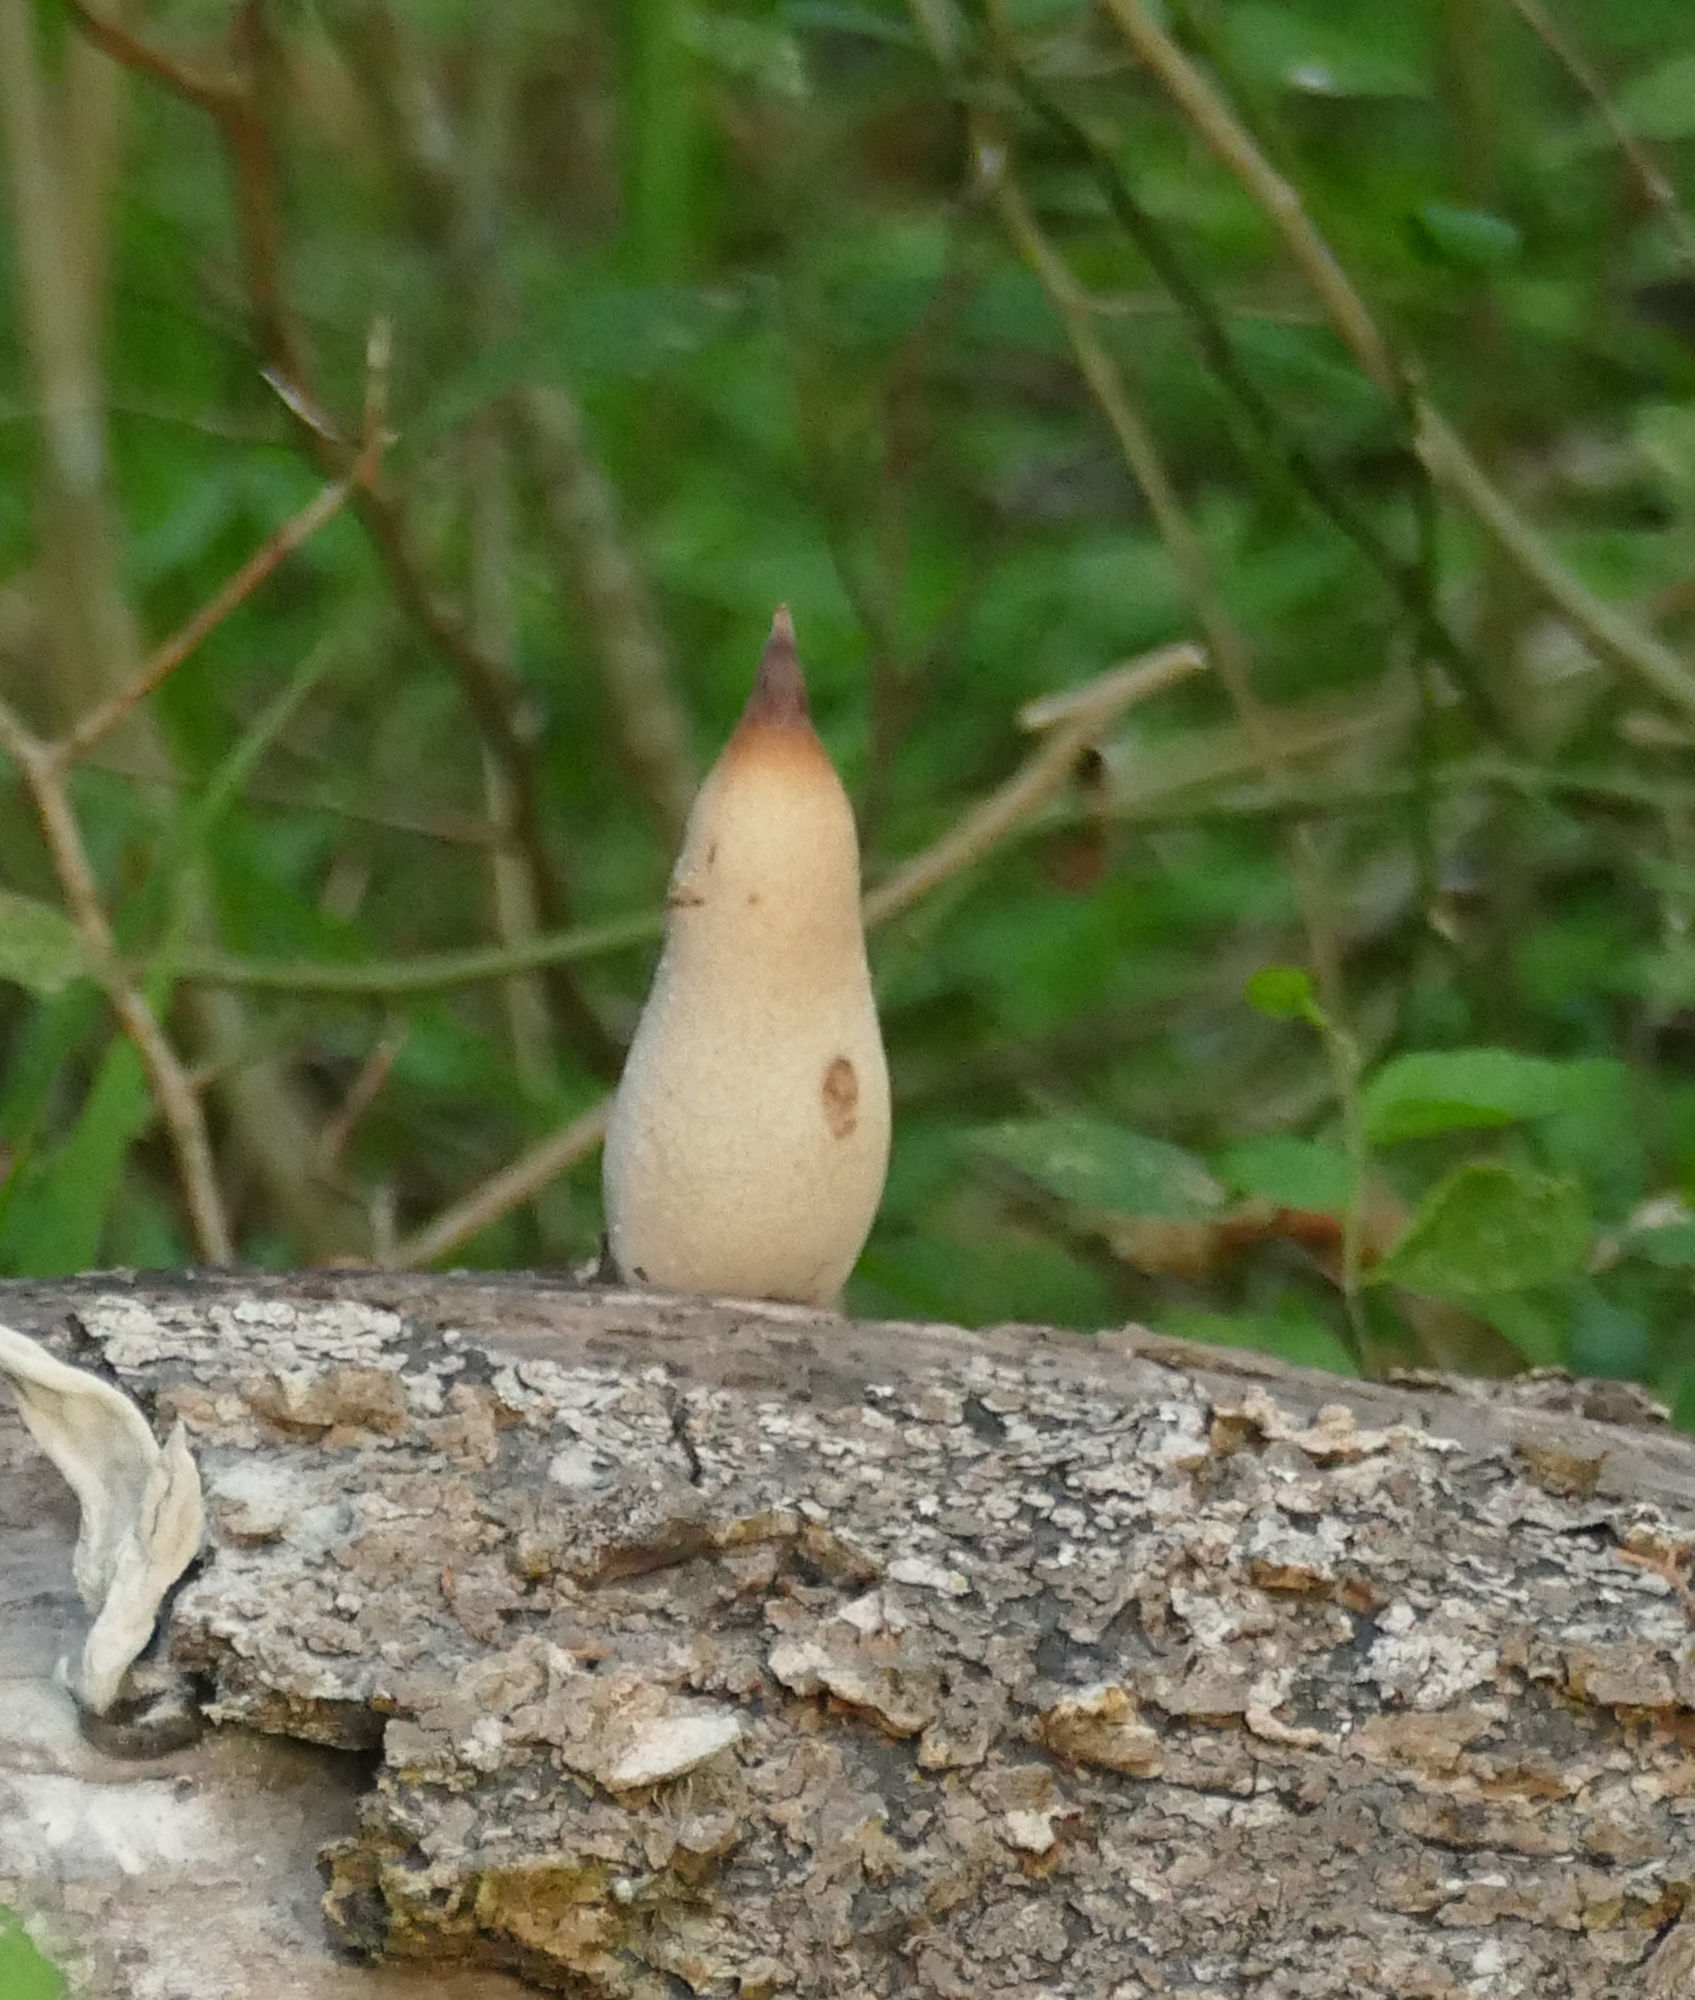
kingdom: Fungi
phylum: Ascomycota
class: Sordariomycetes
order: Xylariales
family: Xylariaceae
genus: Xylosphaera
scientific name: Xylosphaera poitei
